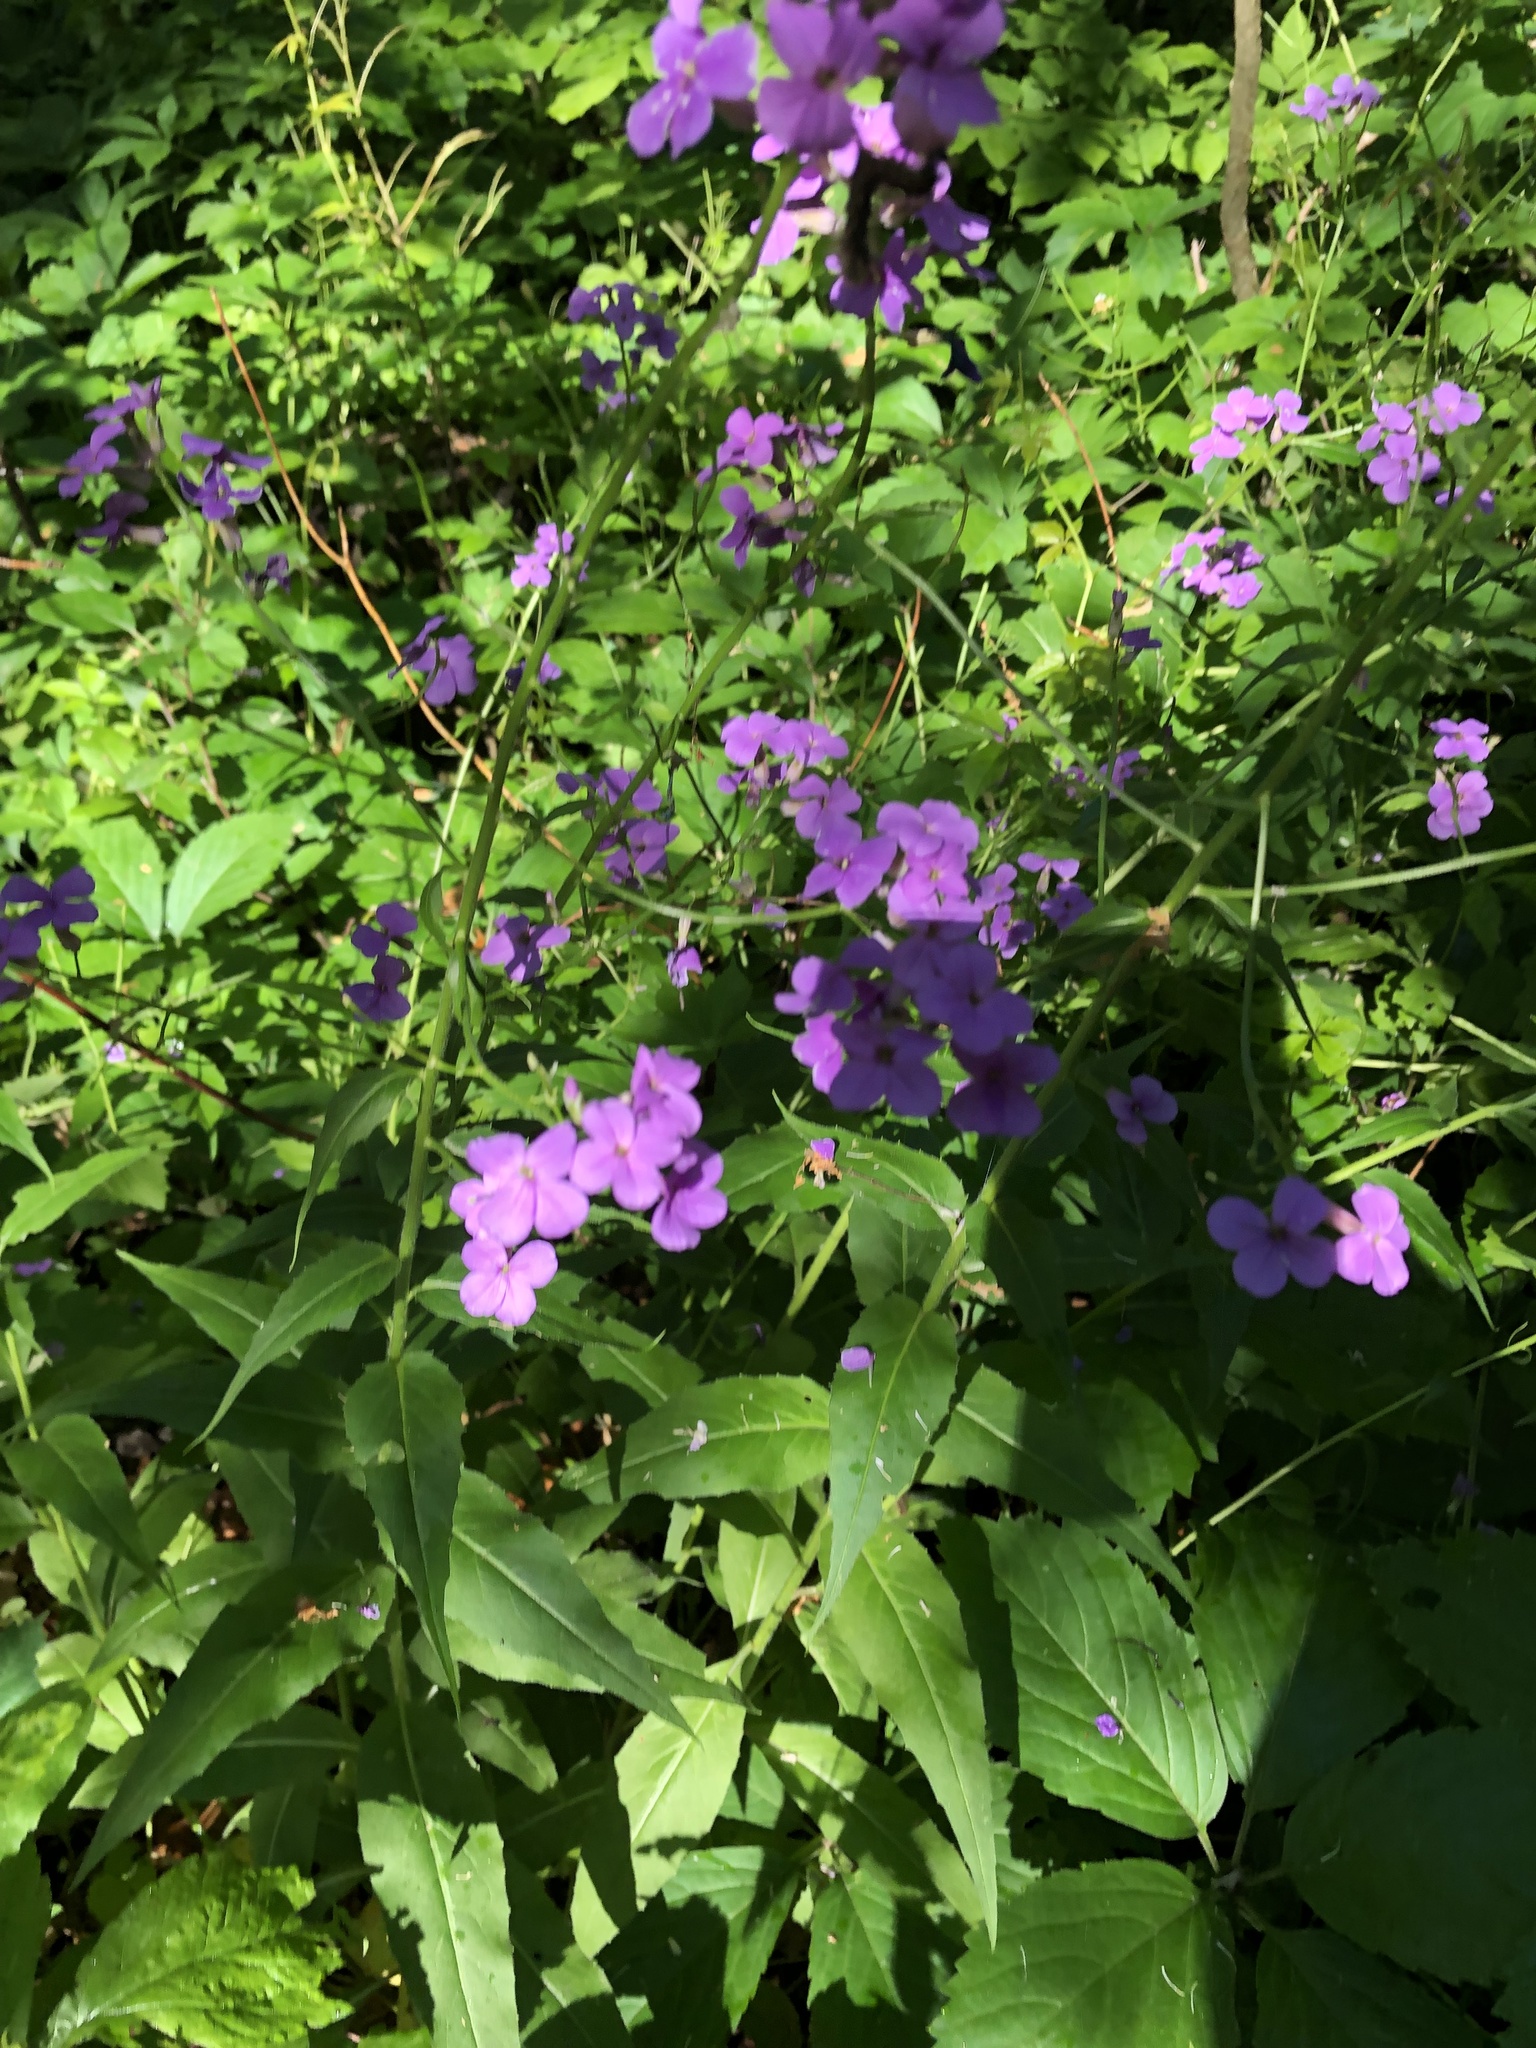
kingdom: Plantae
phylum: Tracheophyta
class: Magnoliopsida
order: Brassicales
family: Brassicaceae
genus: Hesperis
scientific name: Hesperis matronalis
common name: Dame's-violet
